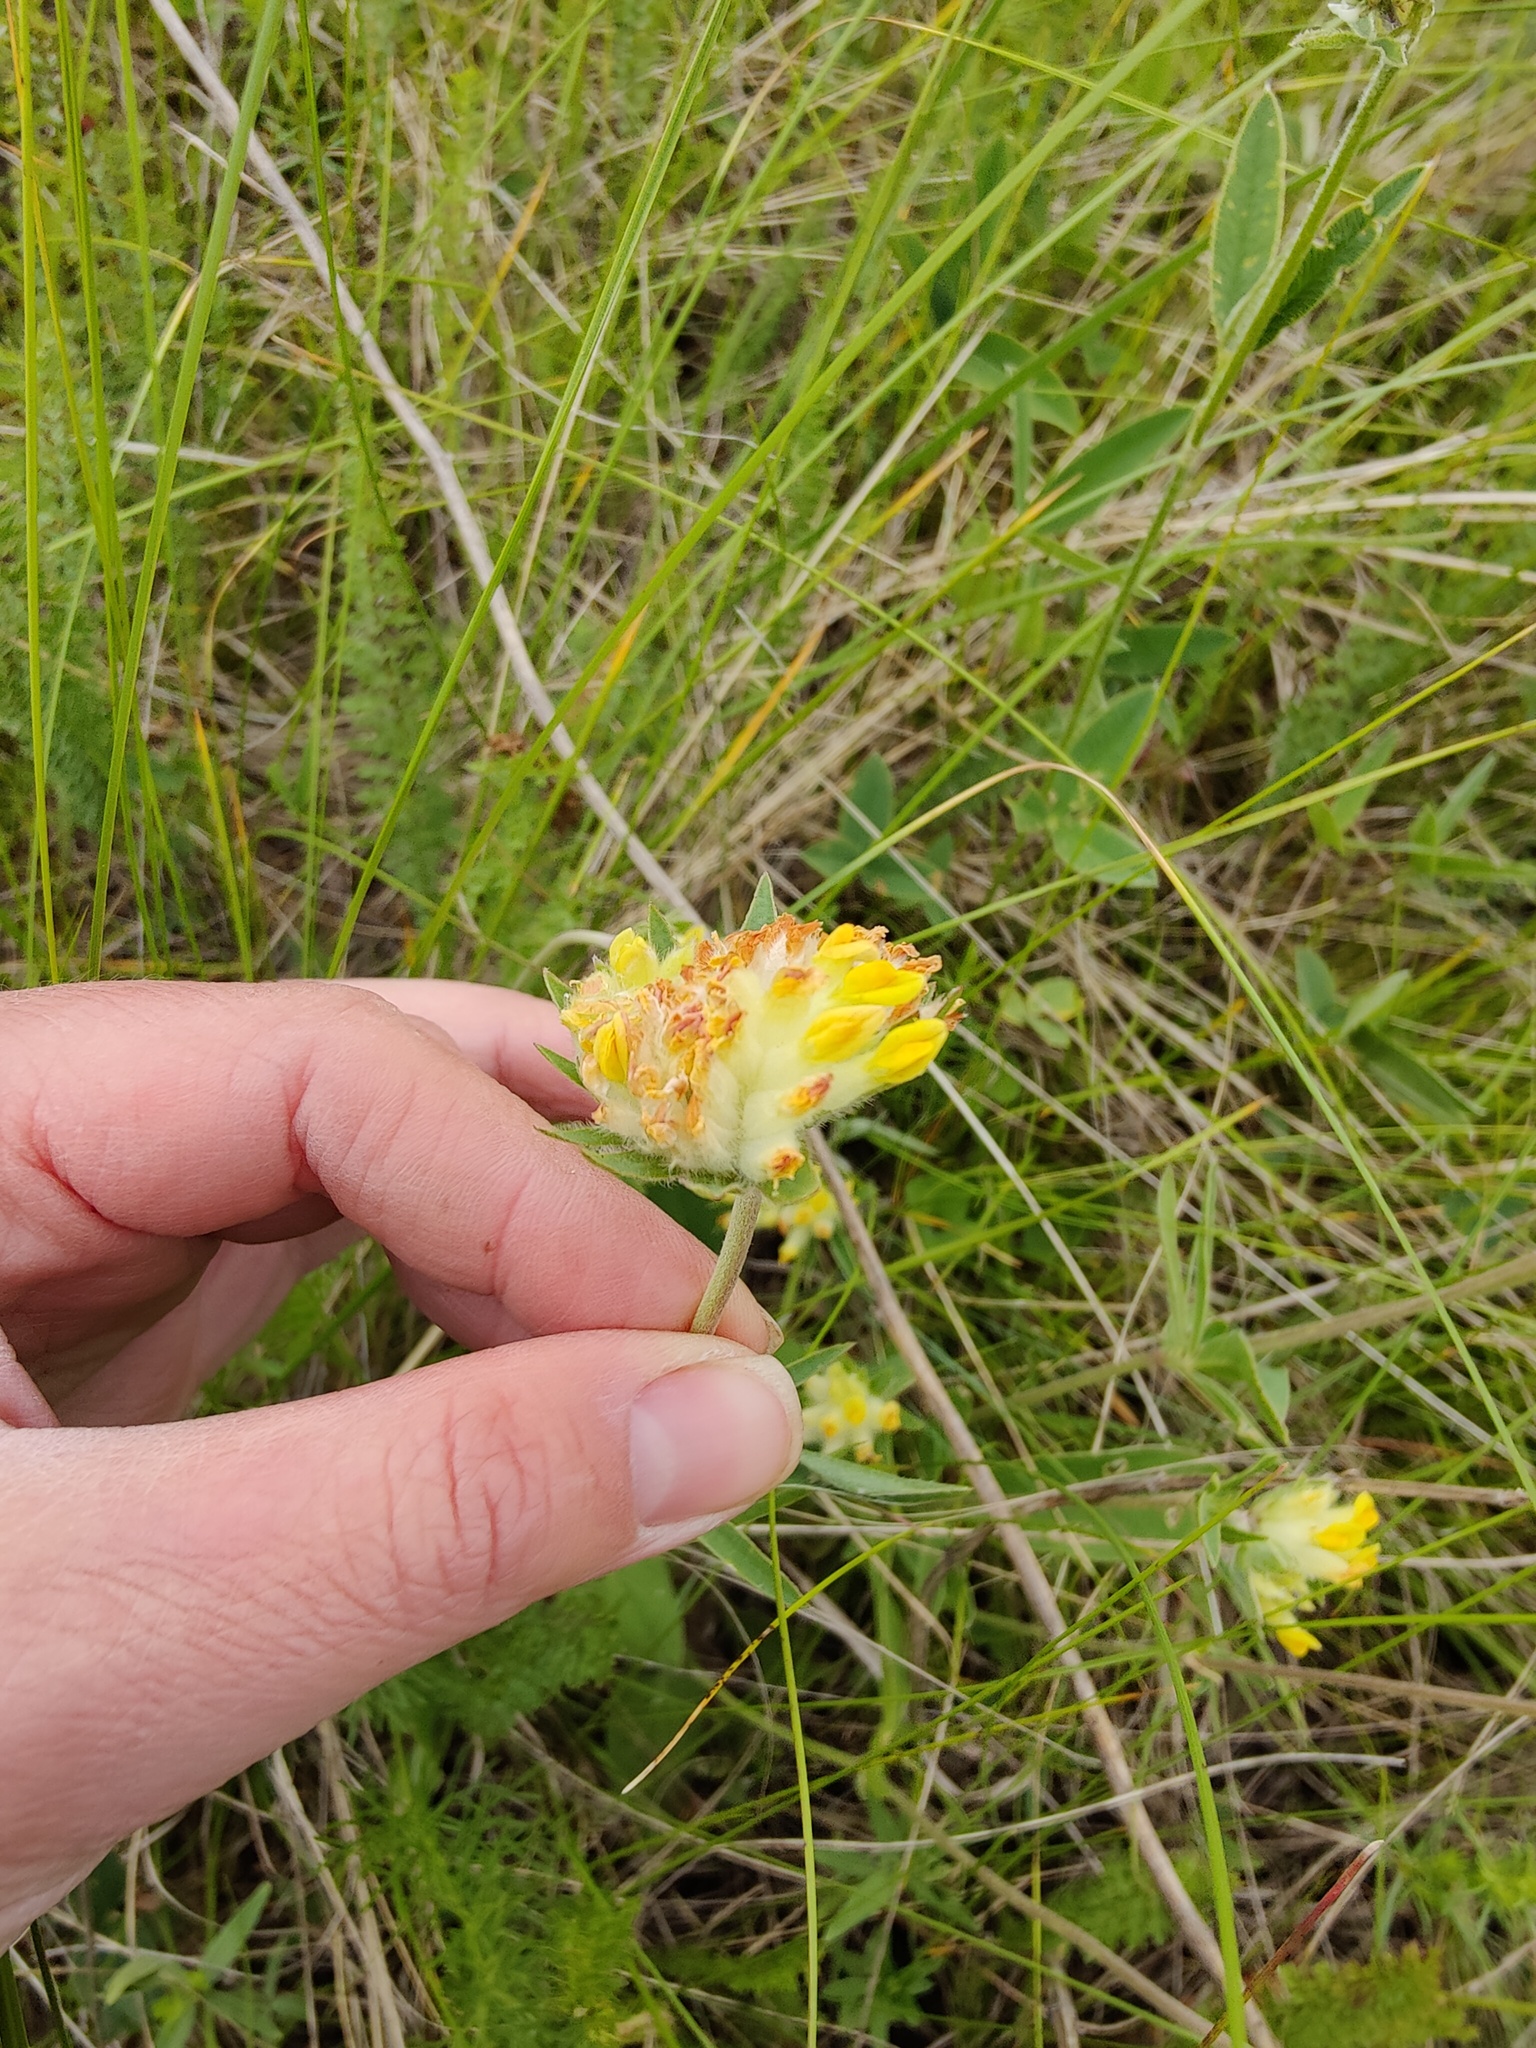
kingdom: Plantae
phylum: Tracheophyta
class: Magnoliopsida
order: Fabales
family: Fabaceae
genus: Anthyllis
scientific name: Anthyllis vulneraria
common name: Kidney vetch
